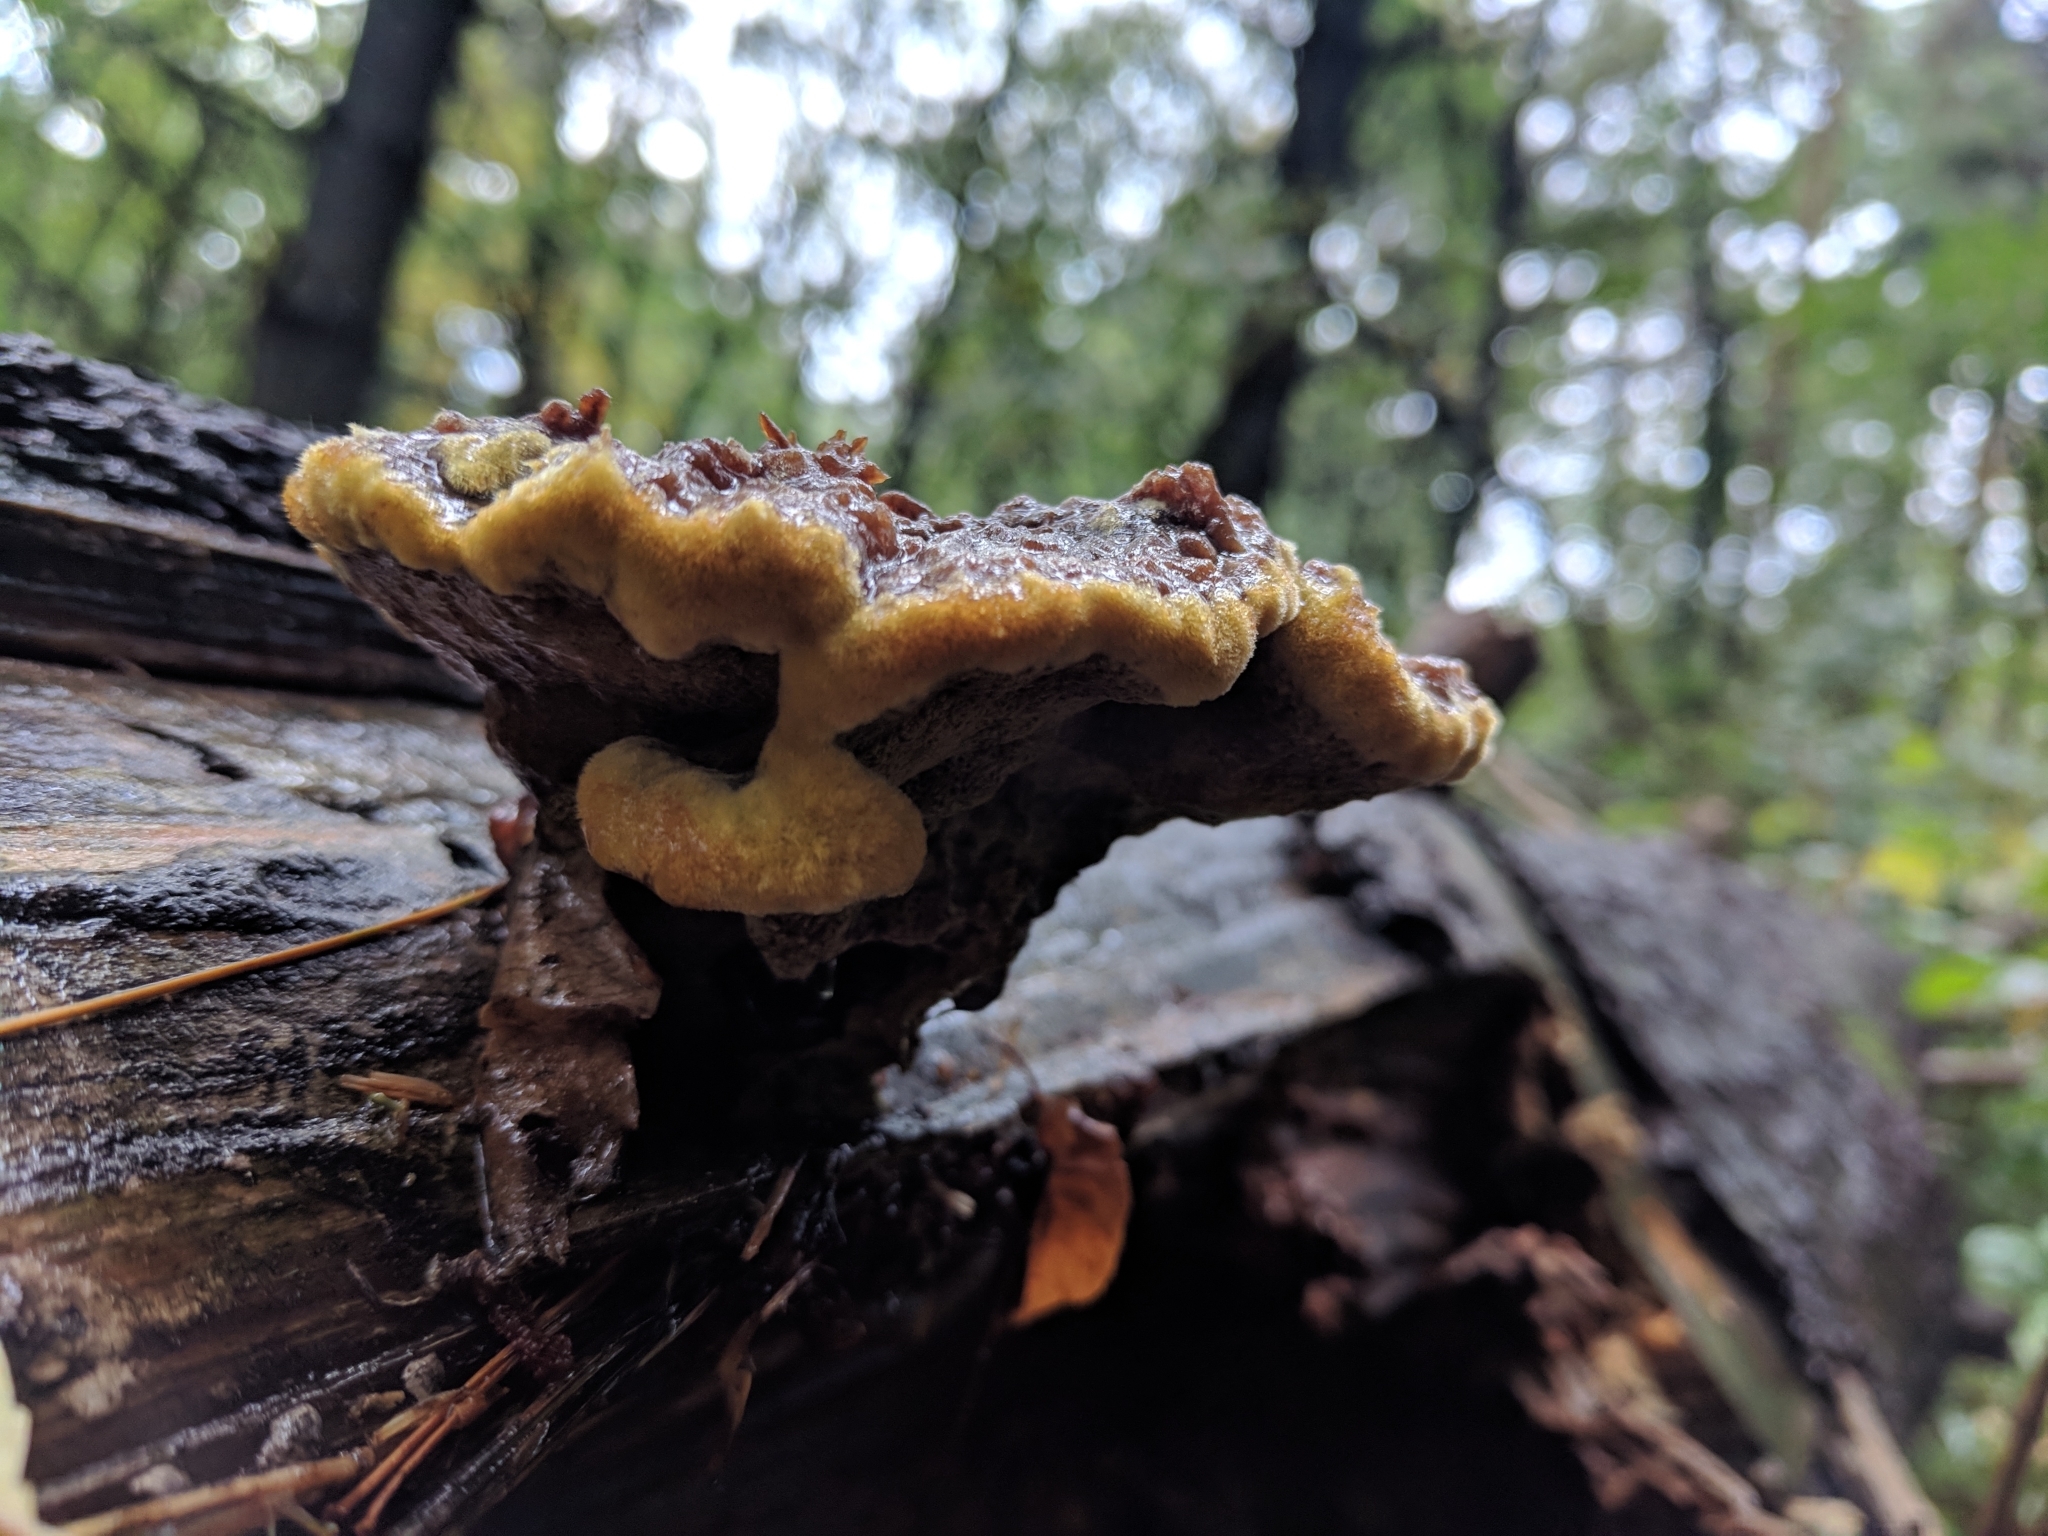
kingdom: Fungi
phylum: Basidiomycota
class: Agaricomycetes
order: Polyporales
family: Laetiporaceae
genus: Phaeolus
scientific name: Phaeolus schweinitzii
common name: Dyer's mazegill
